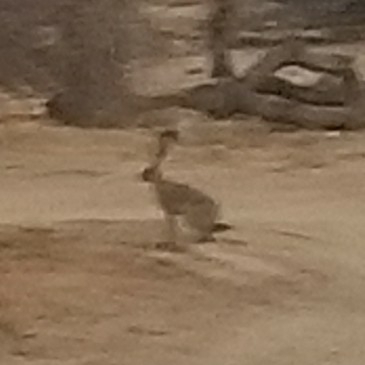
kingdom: Animalia
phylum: Chordata
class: Mammalia
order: Lagomorpha
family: Leporidae
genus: Lepus
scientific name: Lepus californicus
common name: Black-tailed jackrabbit
